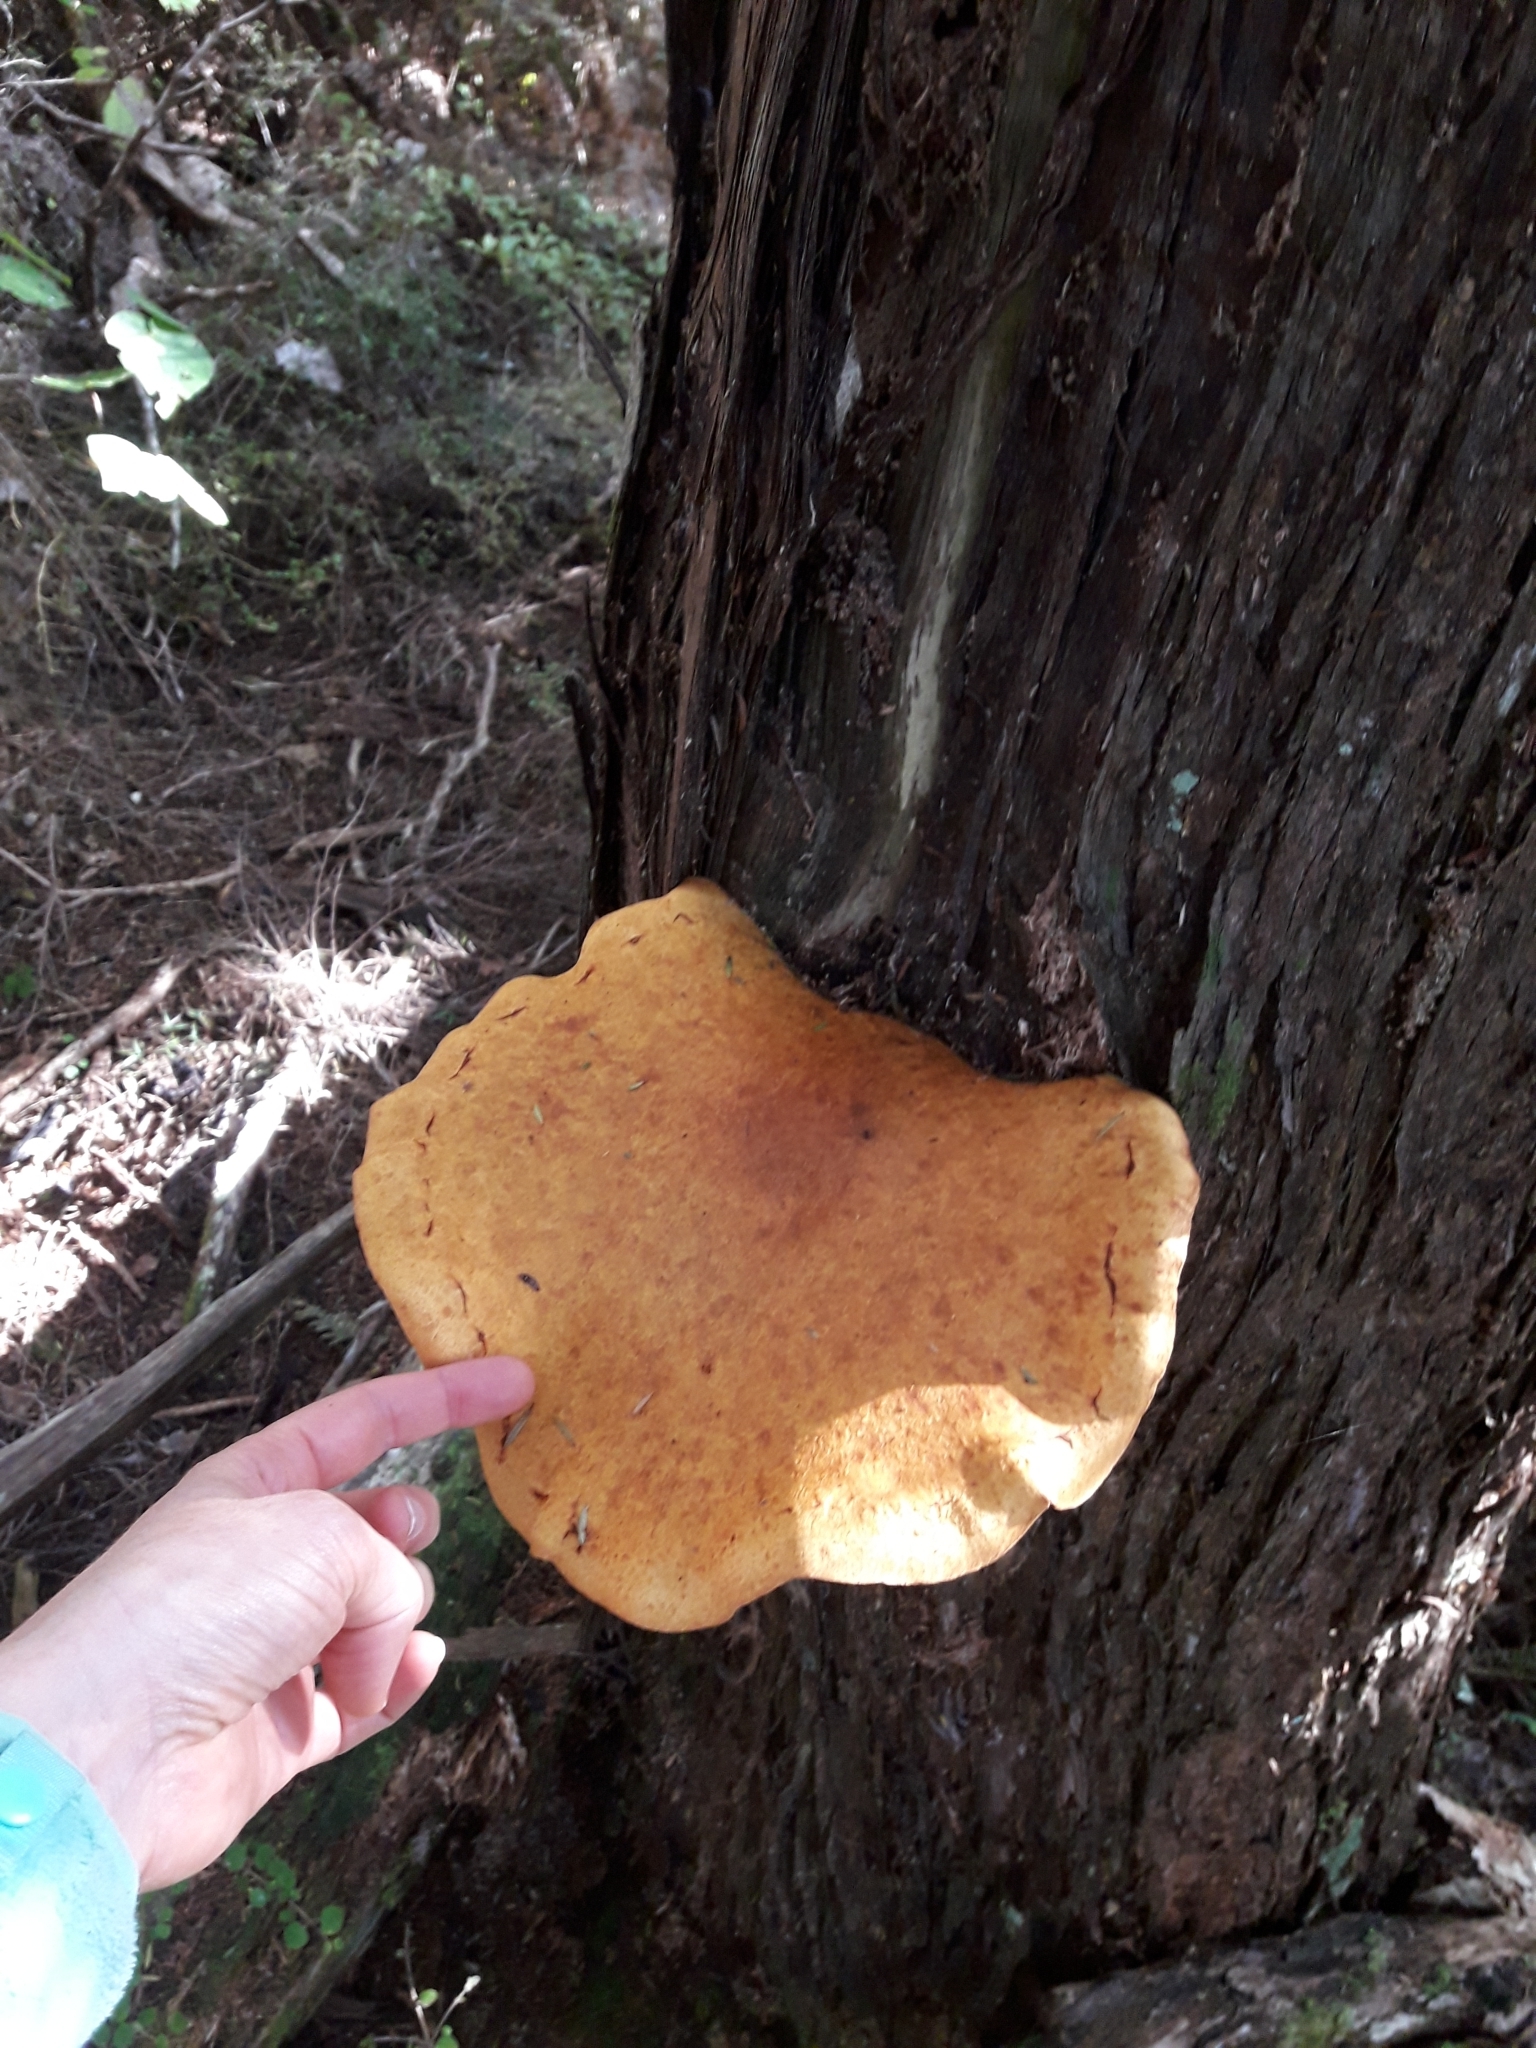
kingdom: Fungi
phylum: Basidiomycota
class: Agaricomycetes
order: Agaricales
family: Hymenogastraceae
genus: Gymnopilus
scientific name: Gymnopilus junonius
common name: Spectacular rustgill
